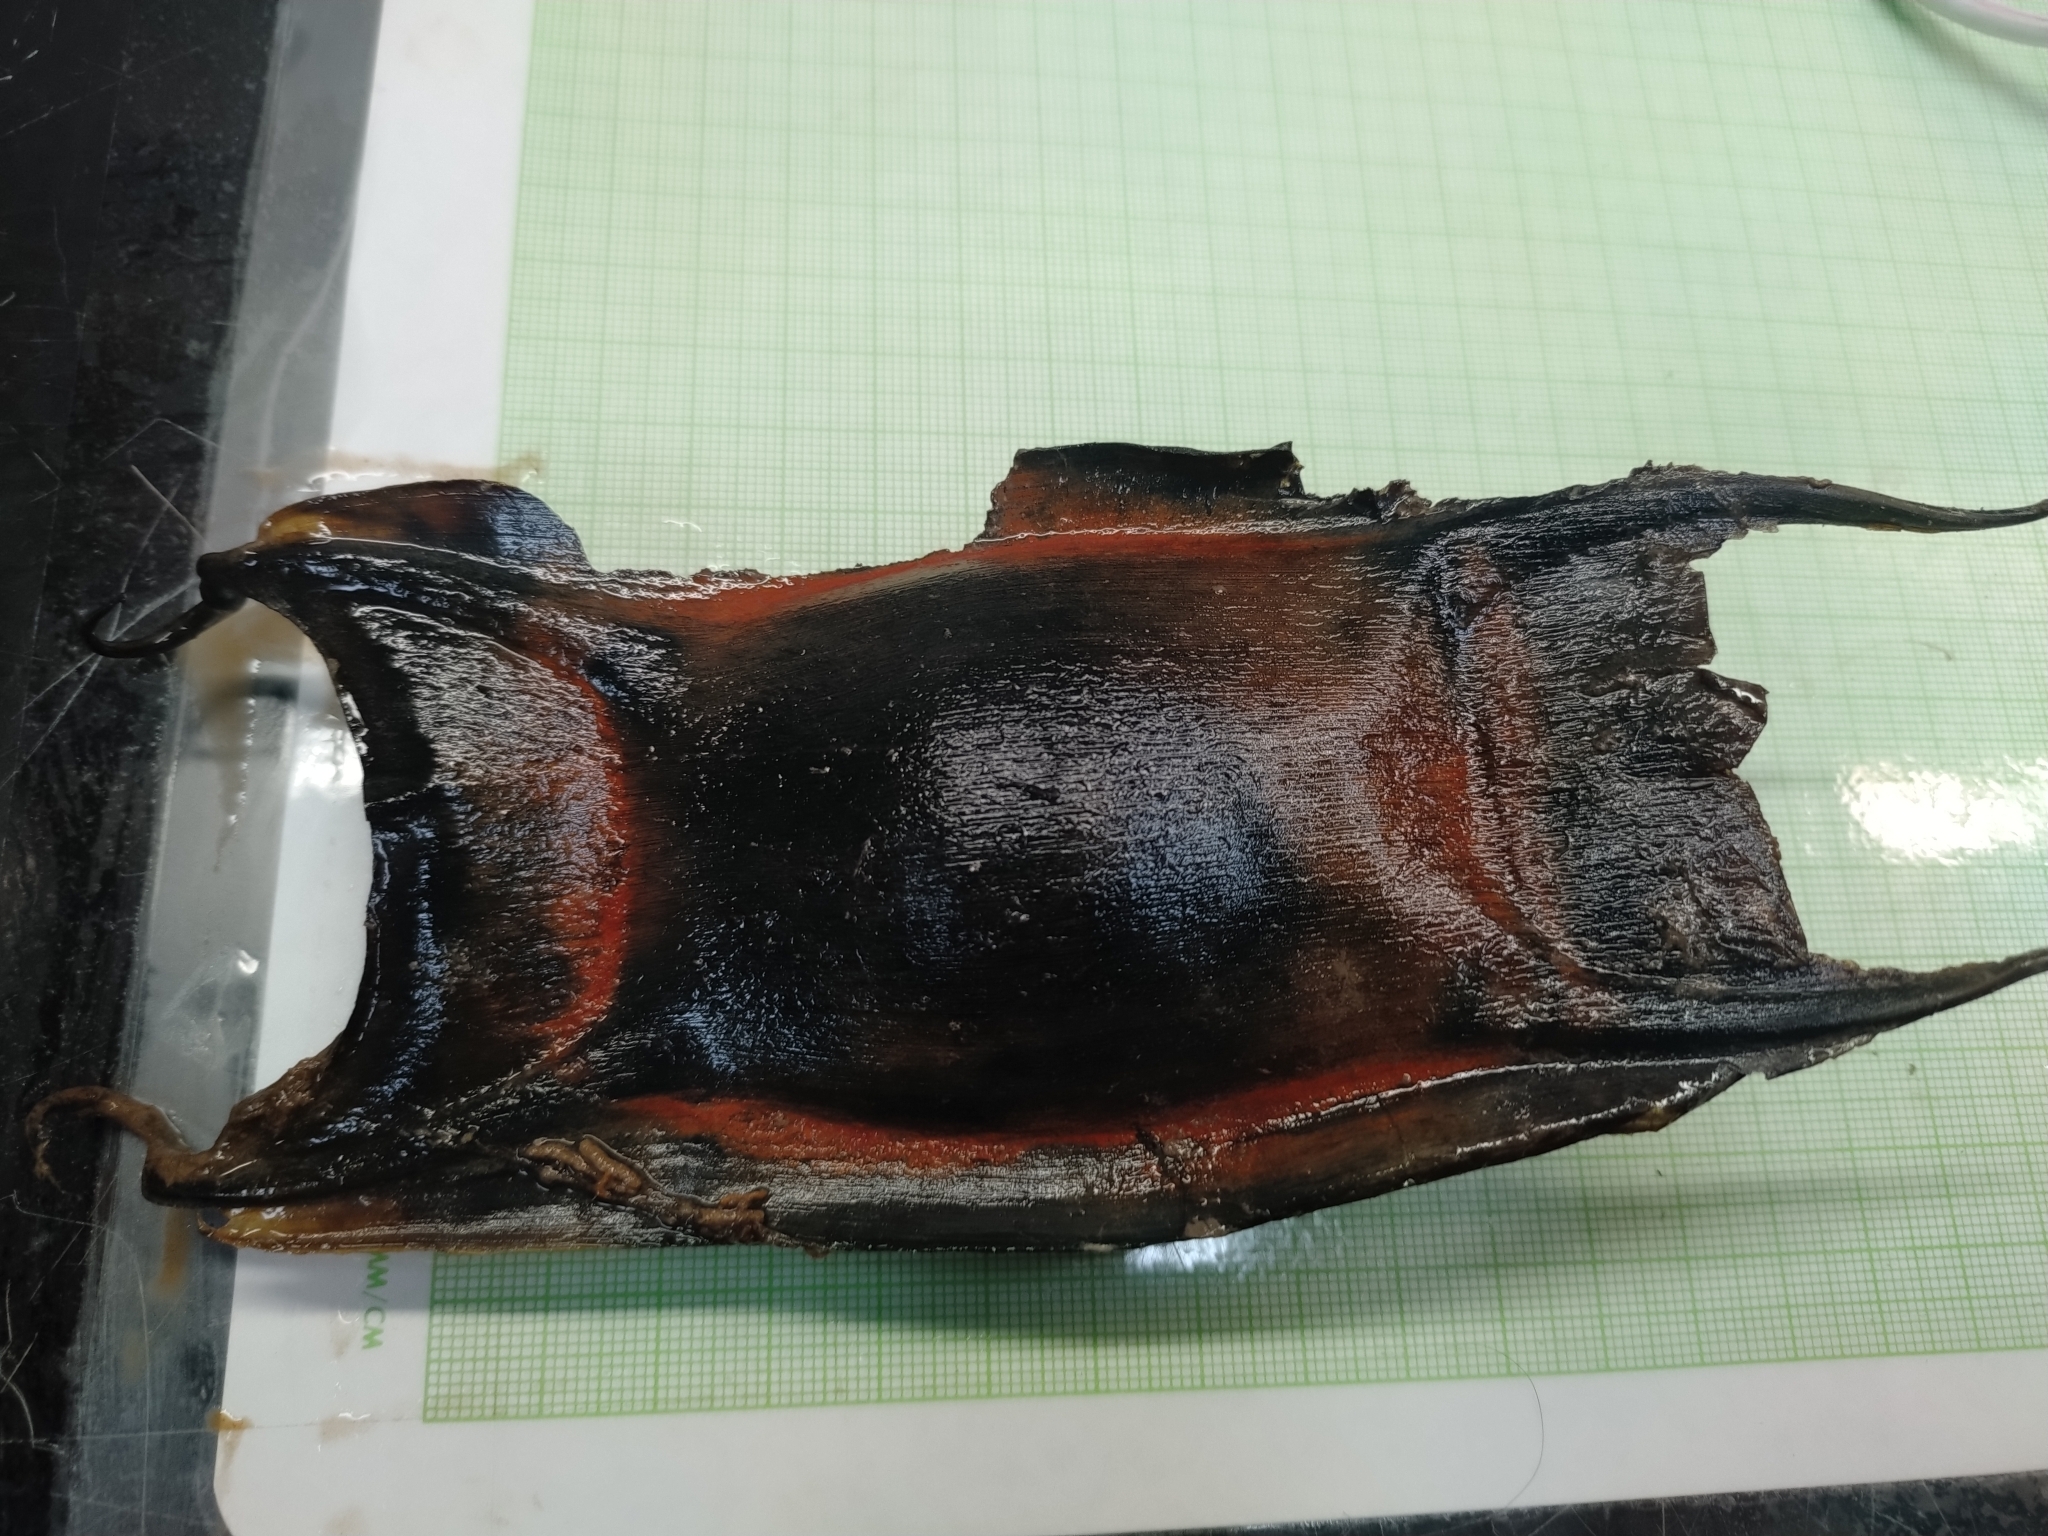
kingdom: Animalia
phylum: Chordata
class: Elasmobranchii
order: Rajiformes
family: Rajidae
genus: Amblyraja
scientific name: Amblyraja
